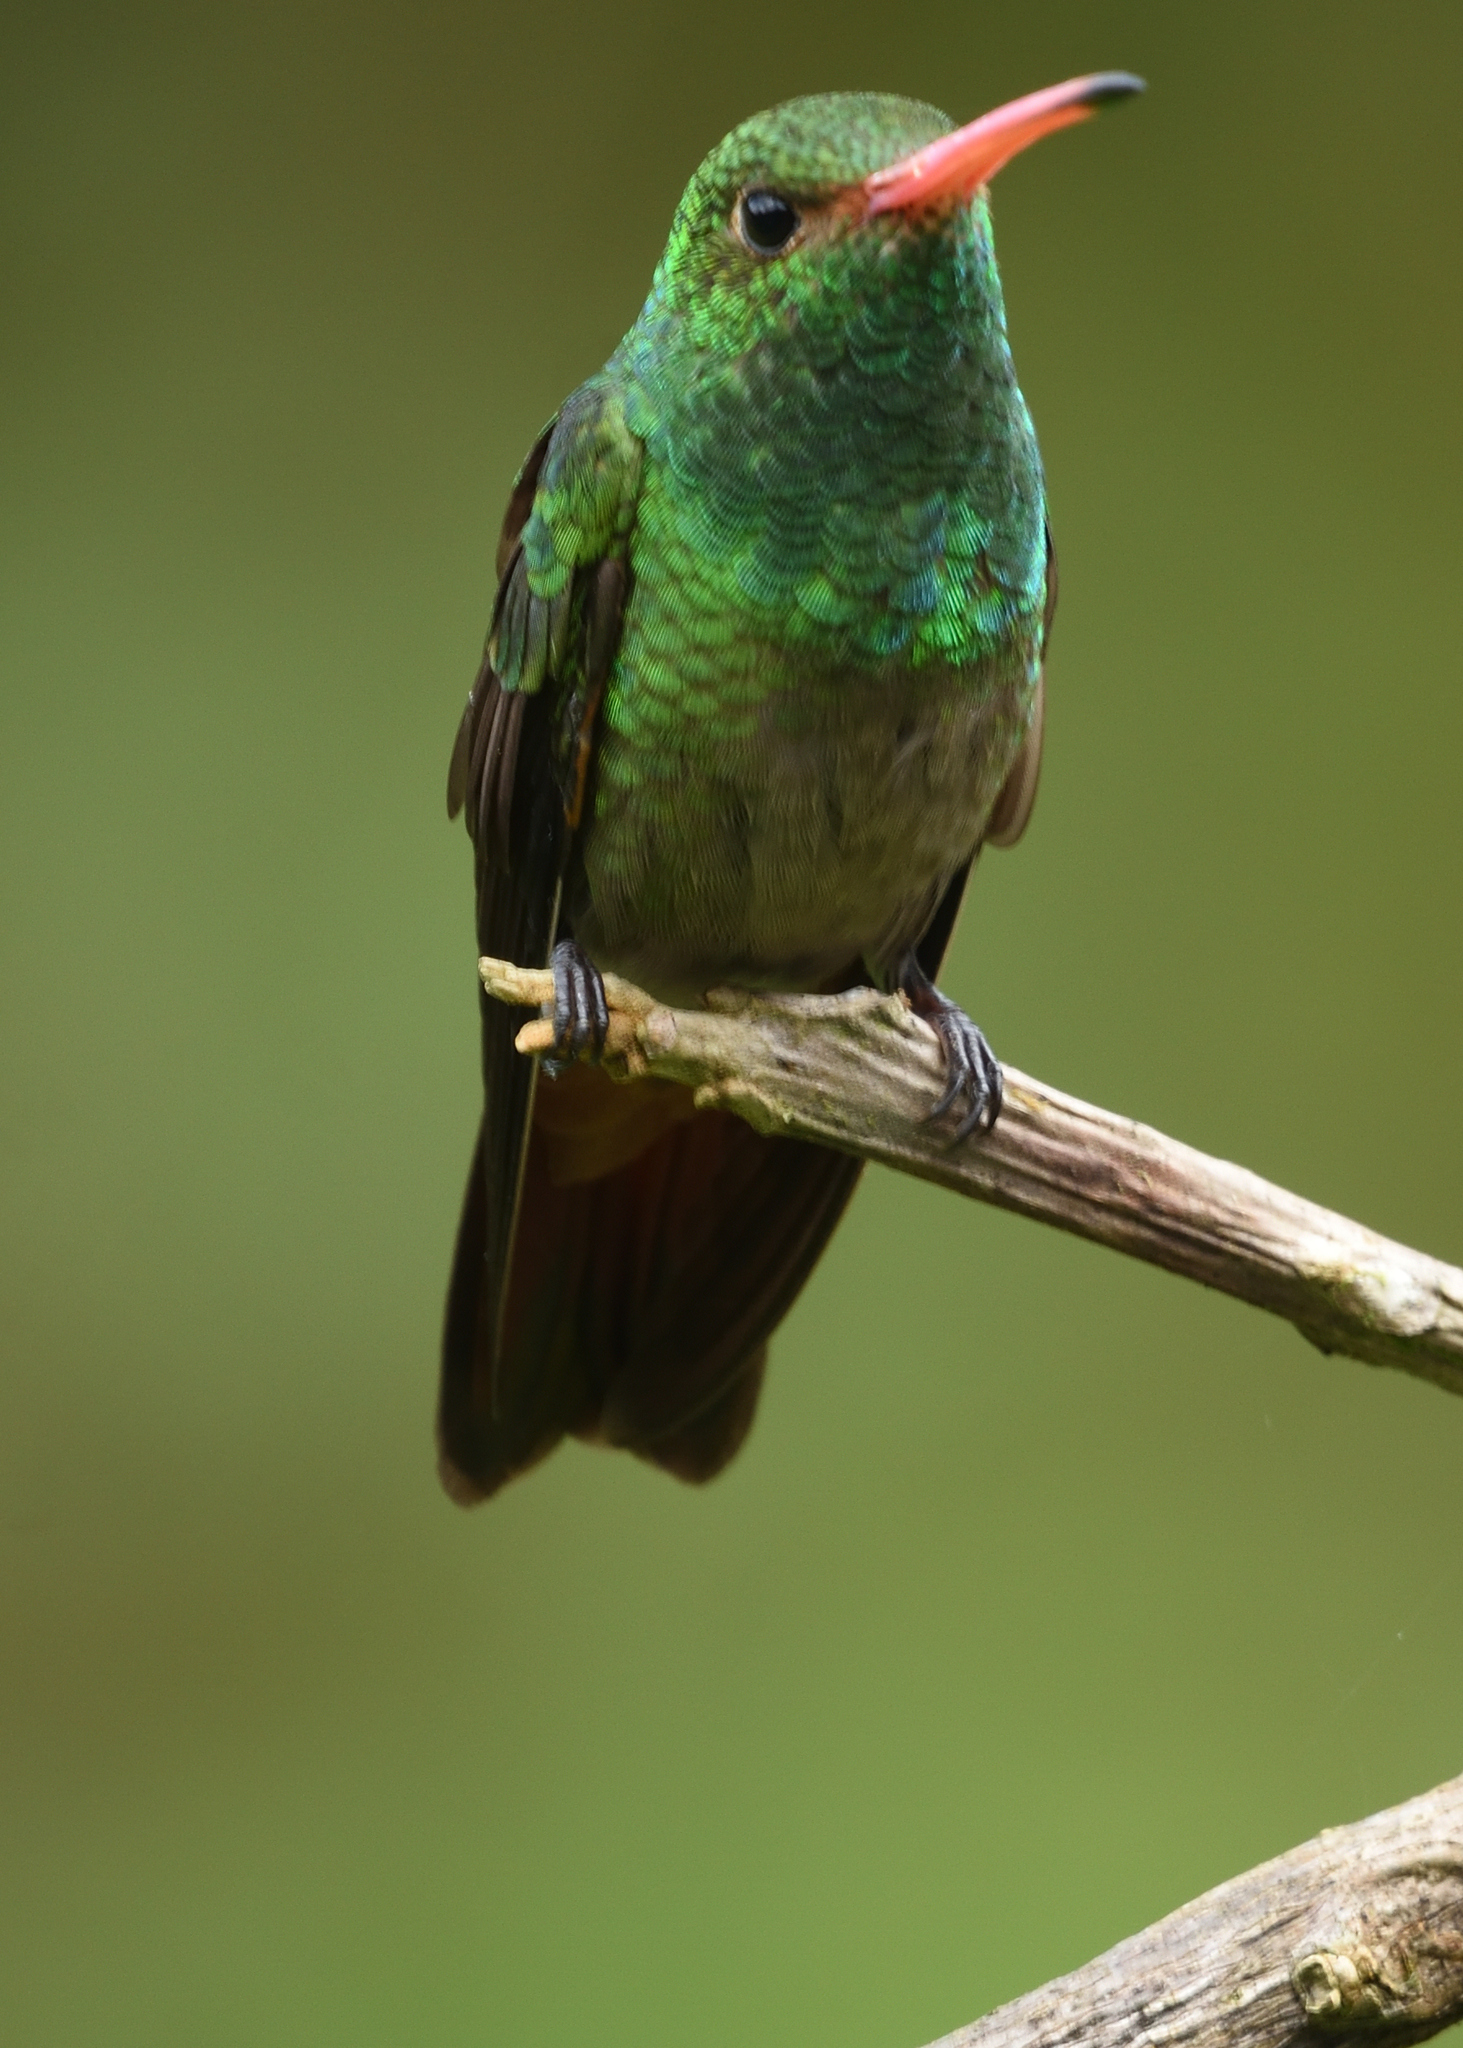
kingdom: Animalia
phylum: Chordata
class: Aves
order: Apodiformes
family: Trochilidae
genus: Amazilia
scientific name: Amazilia tzacatl
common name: Rufous-tailed hummingbird
